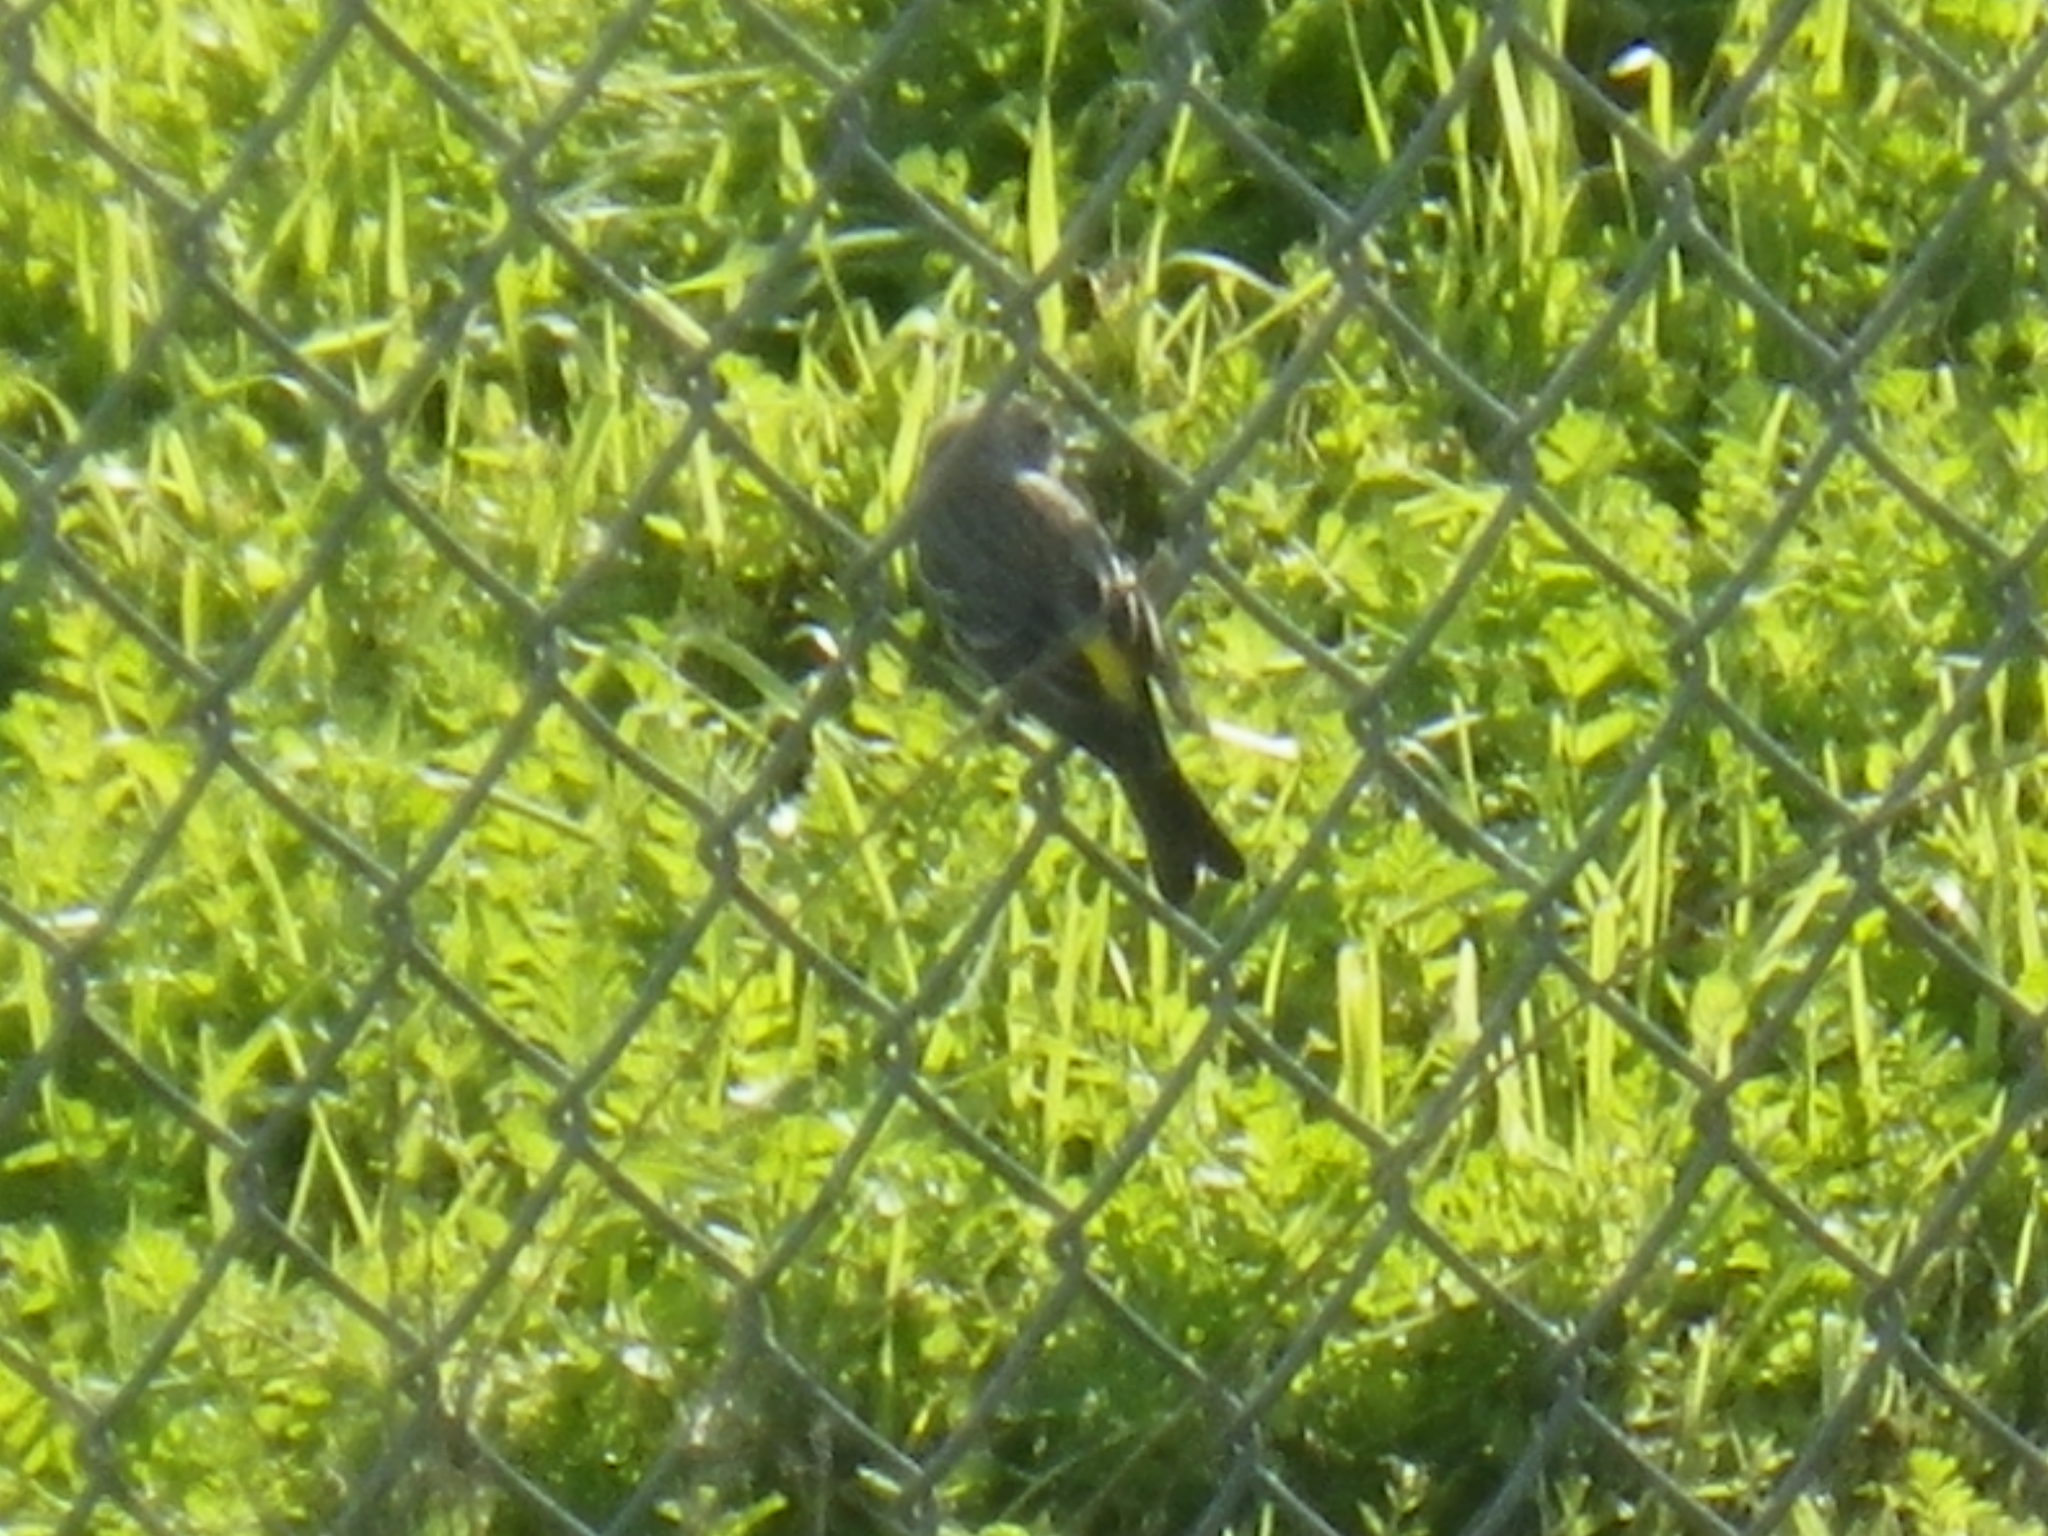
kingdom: Animalia
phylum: Chordata
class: Aves
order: Passeriformes
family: Parulidae
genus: Setophaga
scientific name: Setophaga coronata
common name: Myrtle warbler
